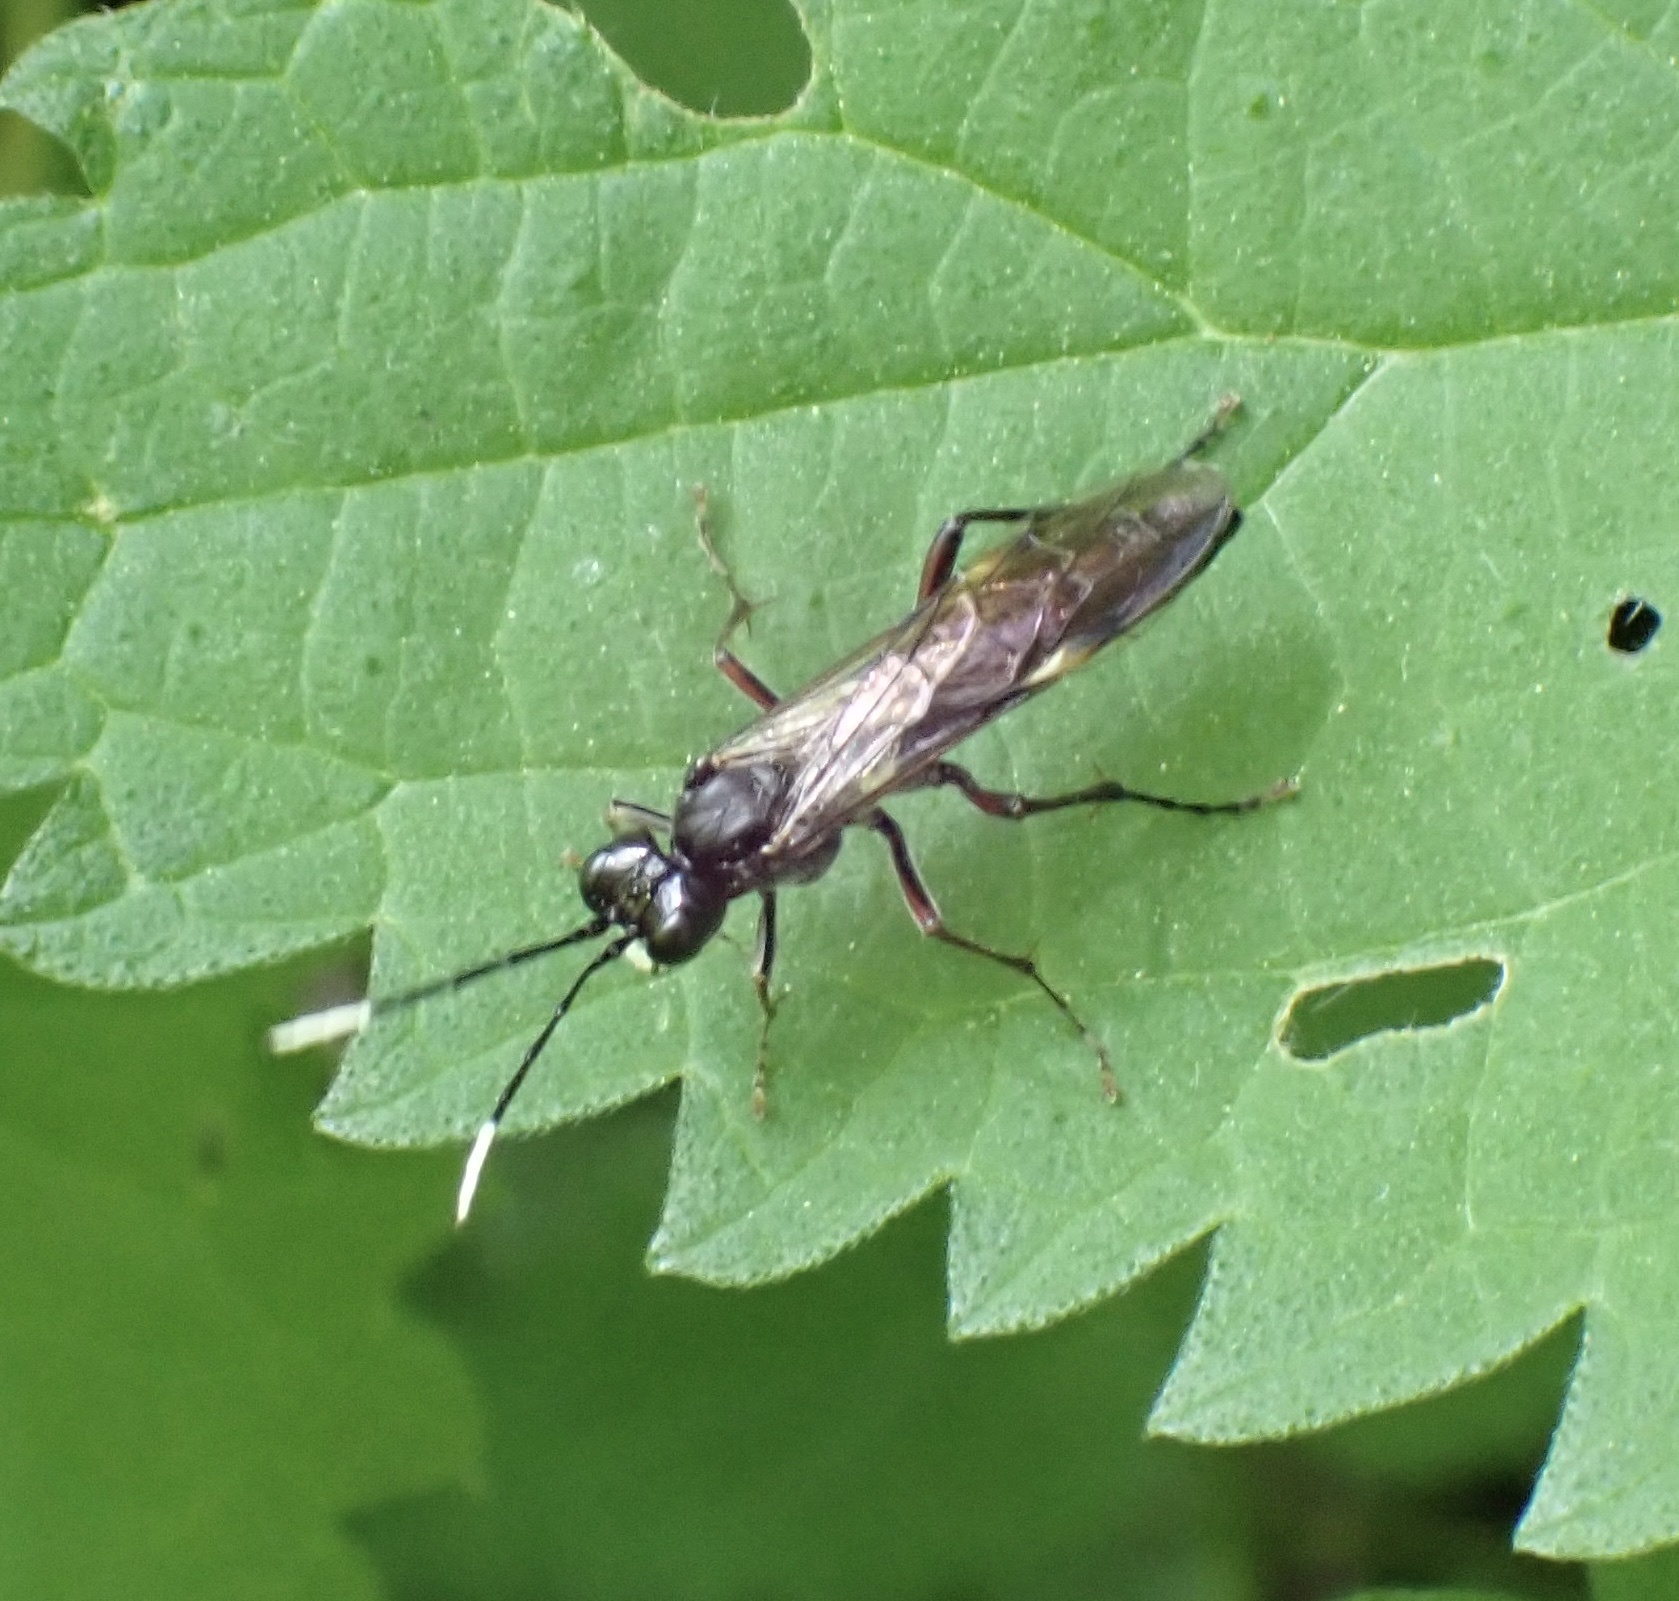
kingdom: Animalia
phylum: Arthropoda
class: Insecta
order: Hymenoptera
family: Tenthredinidae
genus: Tenthredo
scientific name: Tenthredo livida
